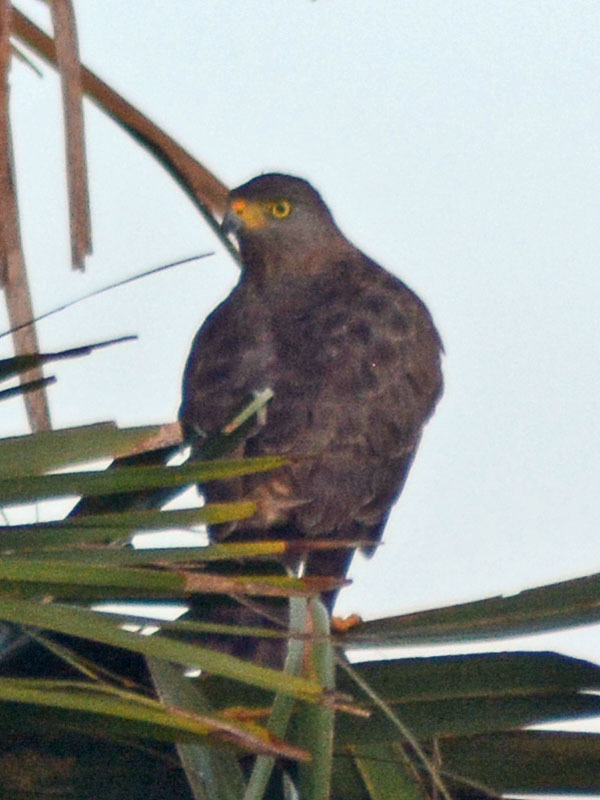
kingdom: Animalia
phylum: Chordata
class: Aves
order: Accipitriformes
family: Accipitridae
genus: Rupornis
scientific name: Rupornis magnirostris
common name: Roadside hawk
